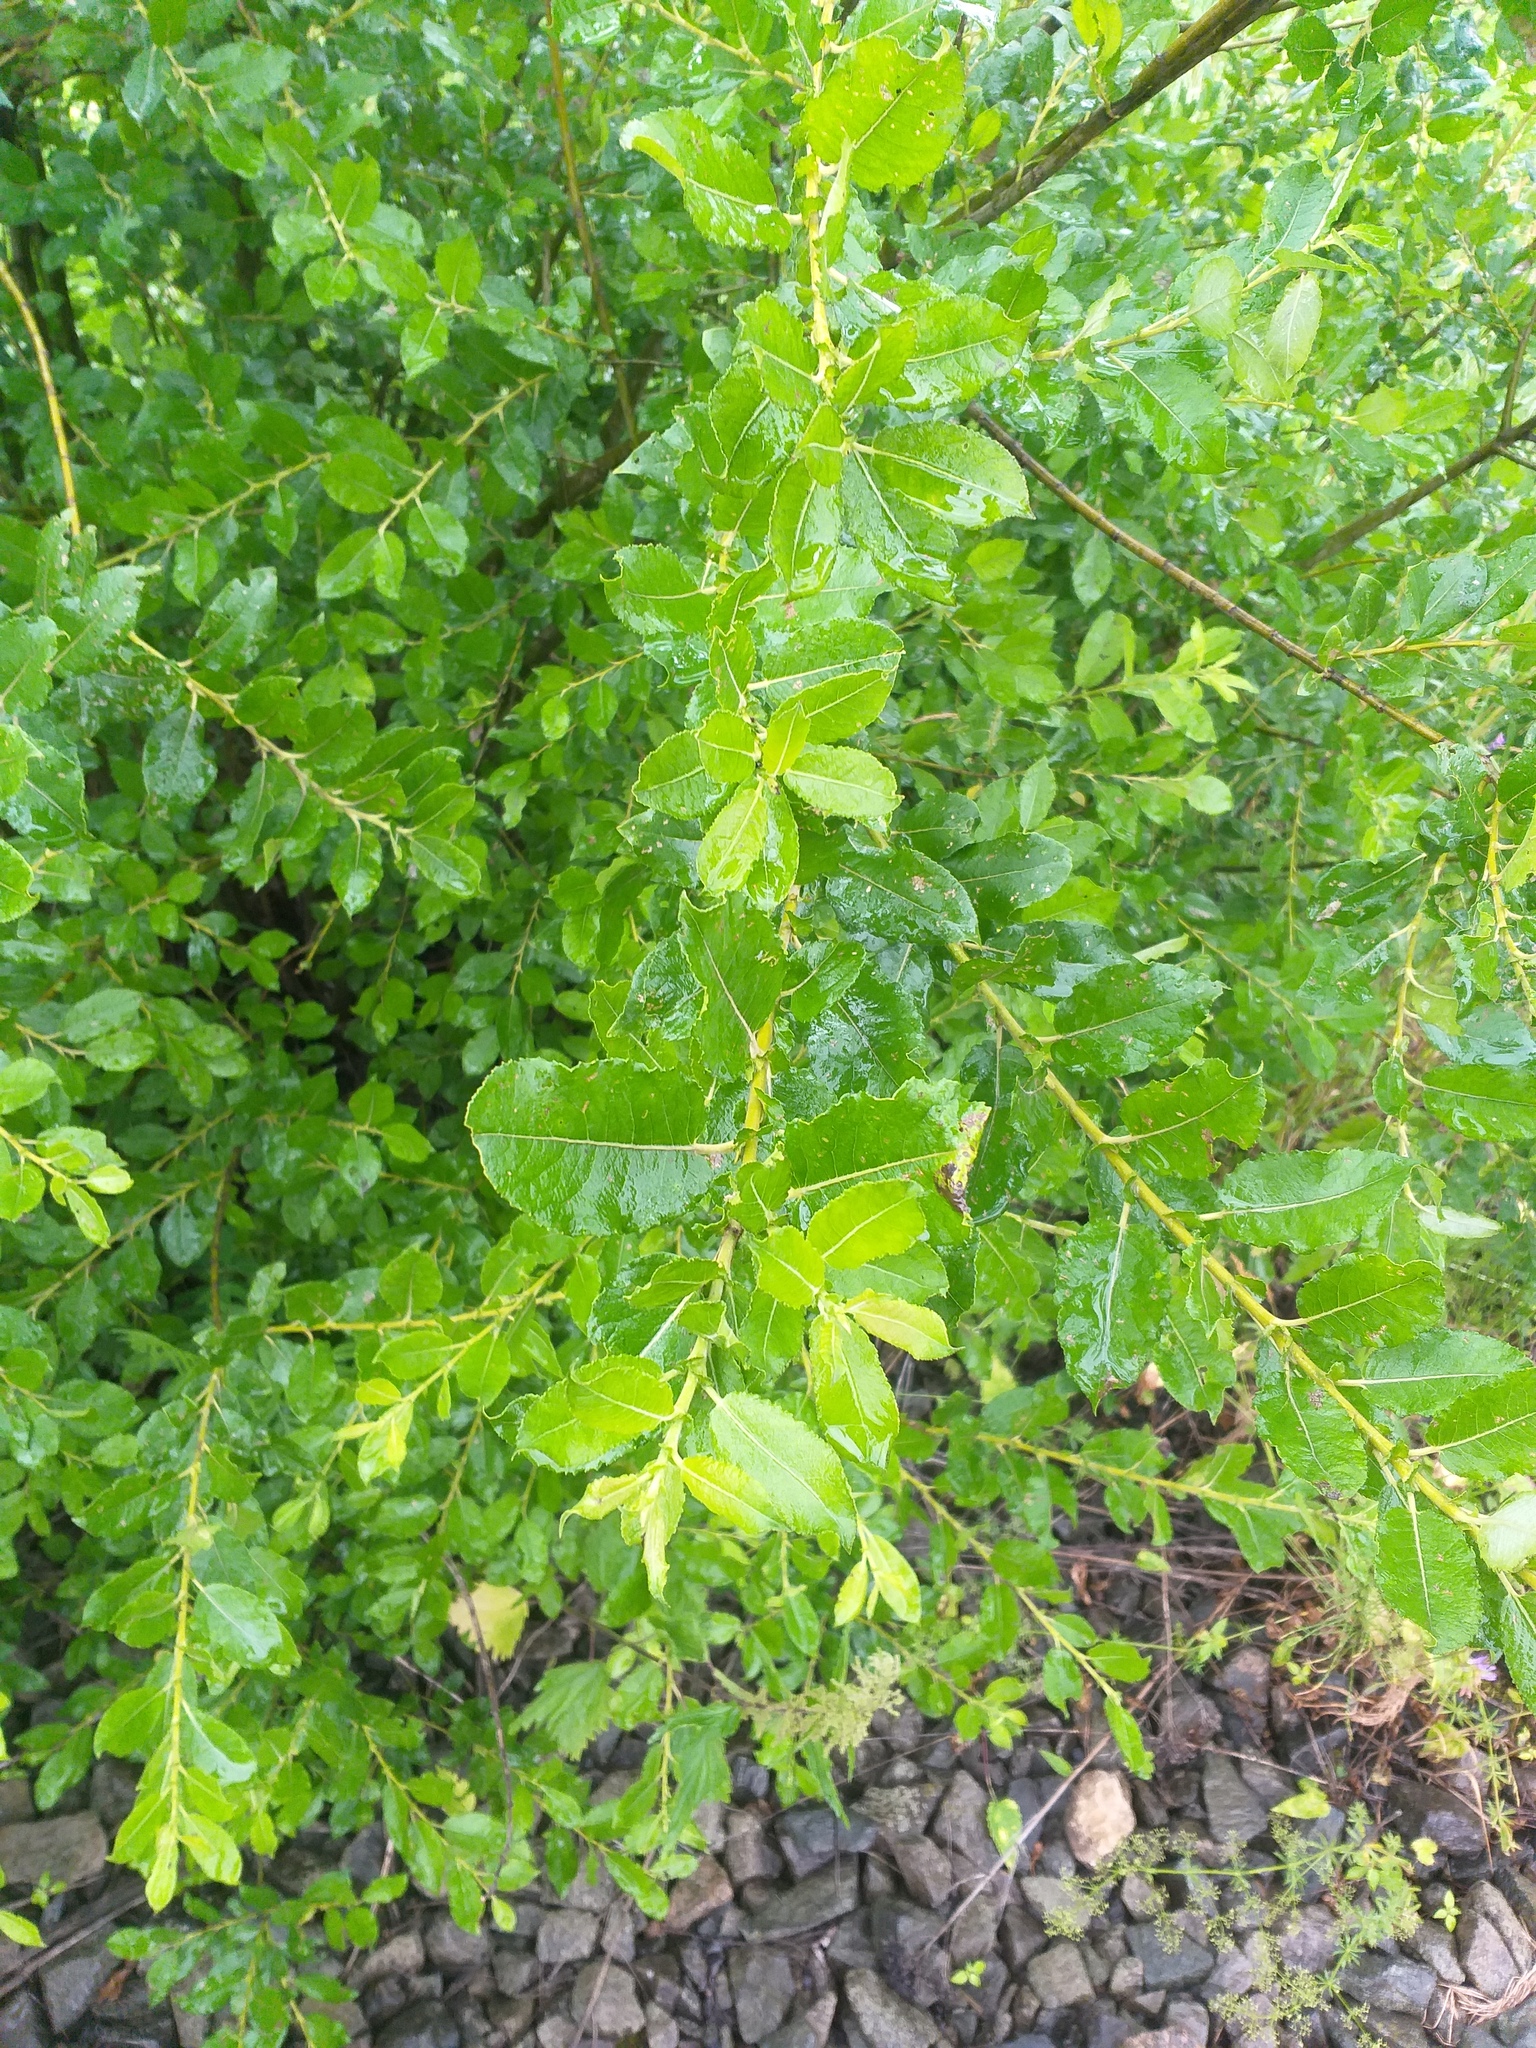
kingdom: Plantae
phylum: Tracheophyta
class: Magnoliopsida
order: Malpighiales
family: Salicaceae
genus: Salix
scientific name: Salix myrsinifolia
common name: Dark-leaved willow
